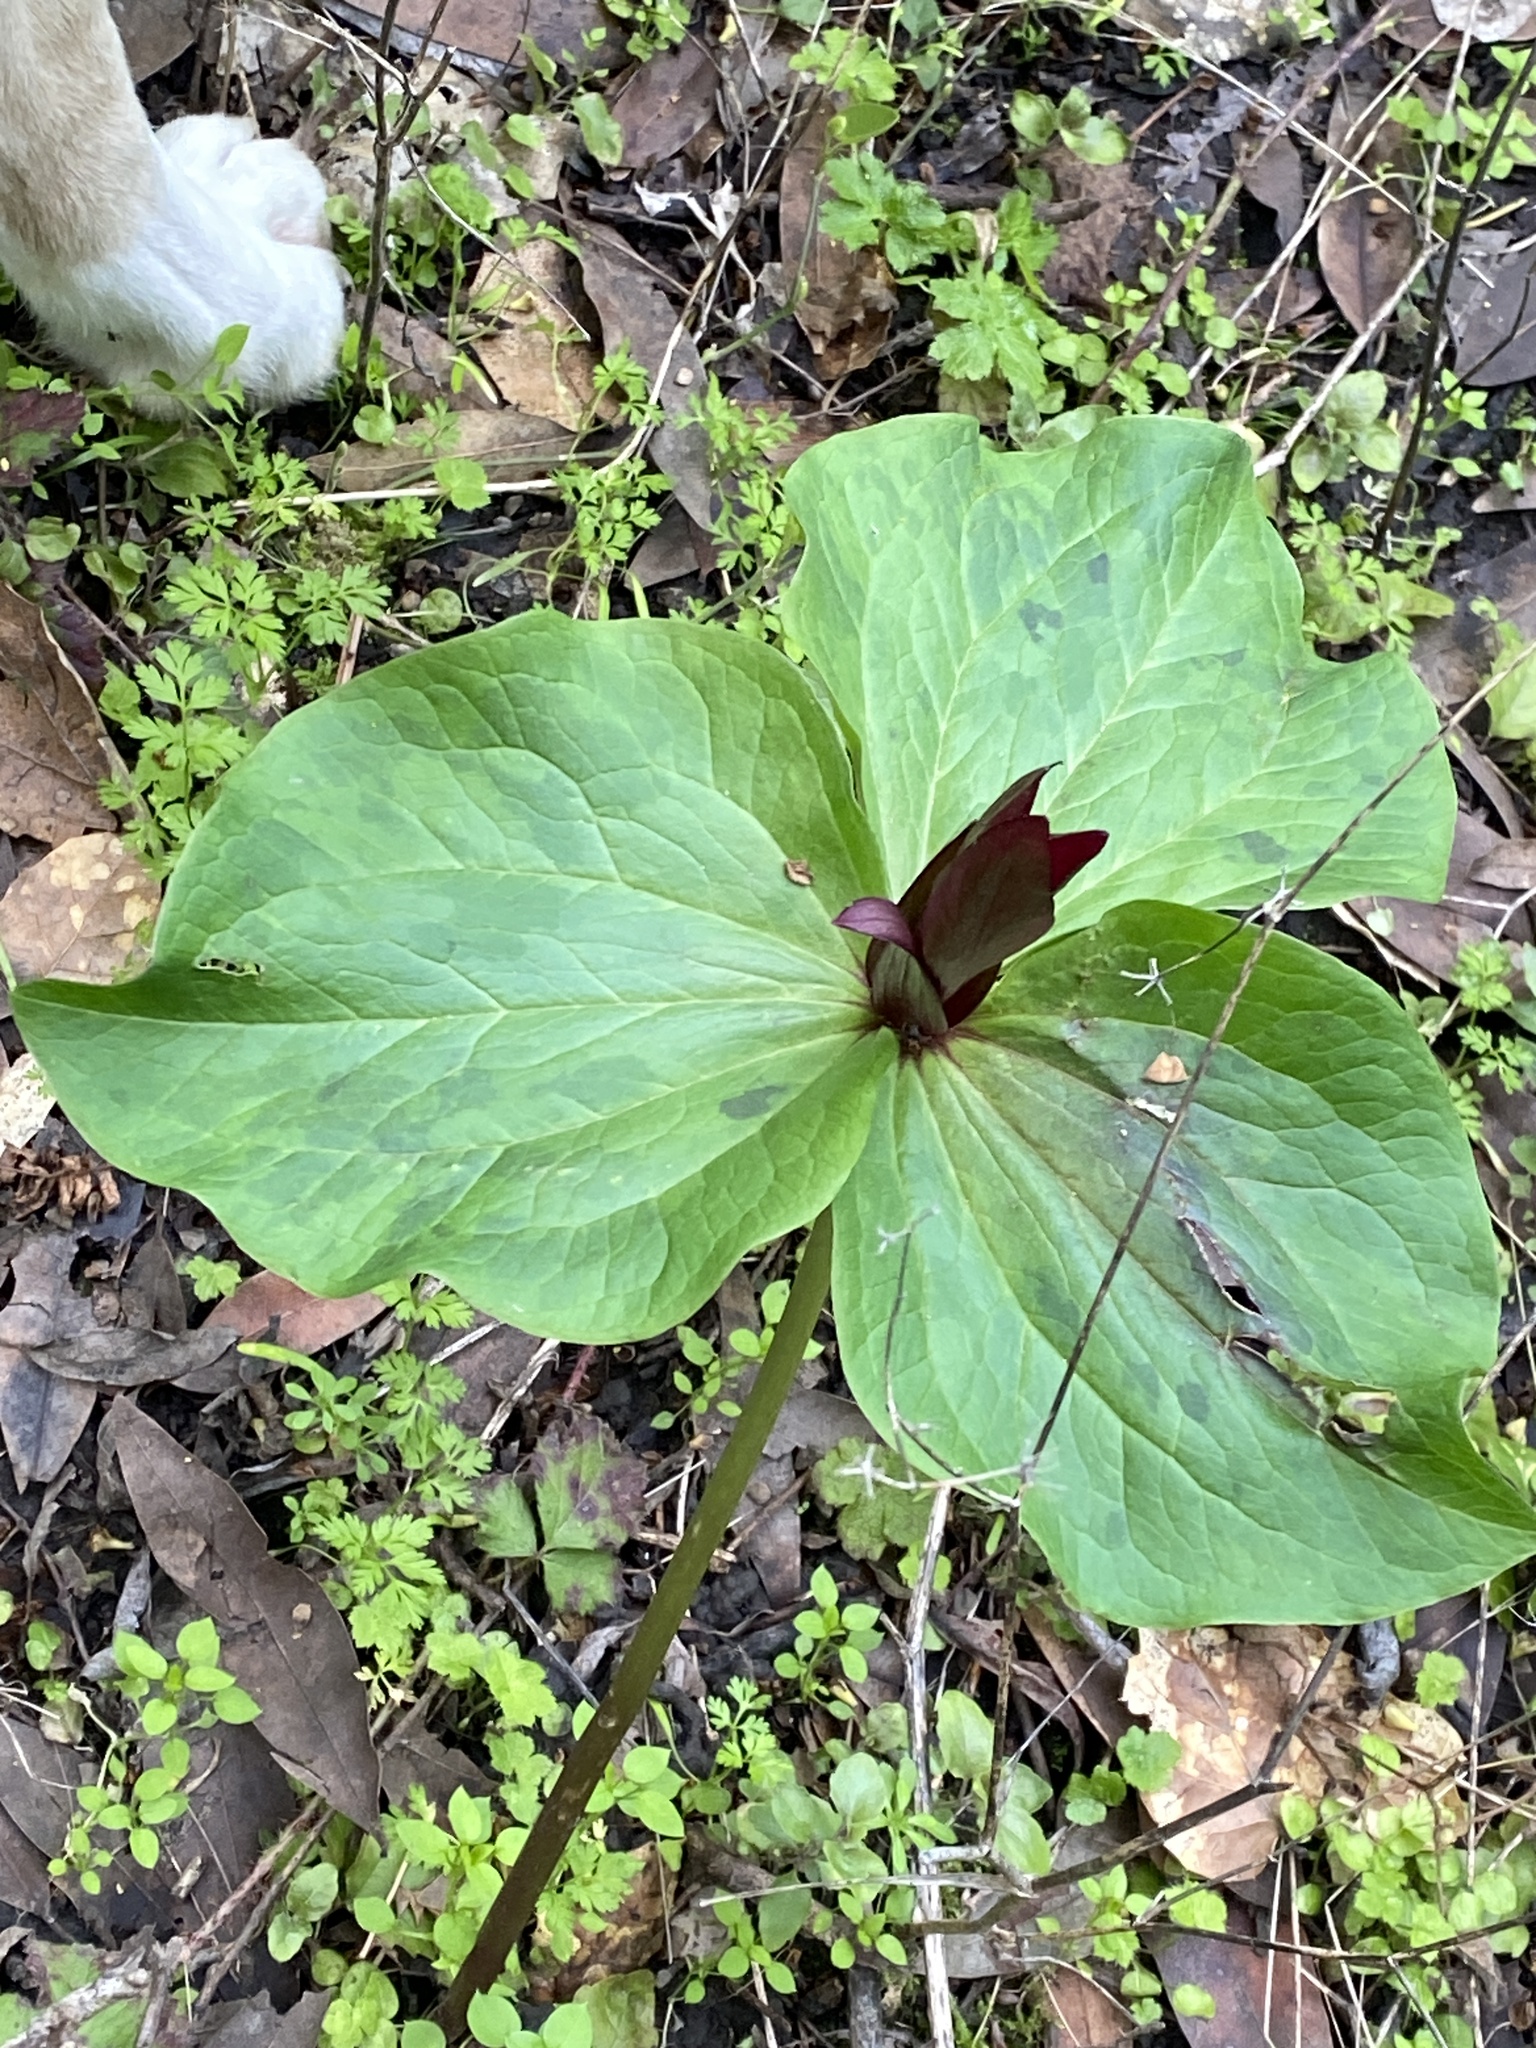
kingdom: Plantae
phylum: Tracheophyta
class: Liliopsida
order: Liliales
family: Melanthiaceae
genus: Trillium
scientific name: Trillium chloropetalum
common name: Giant trillium
